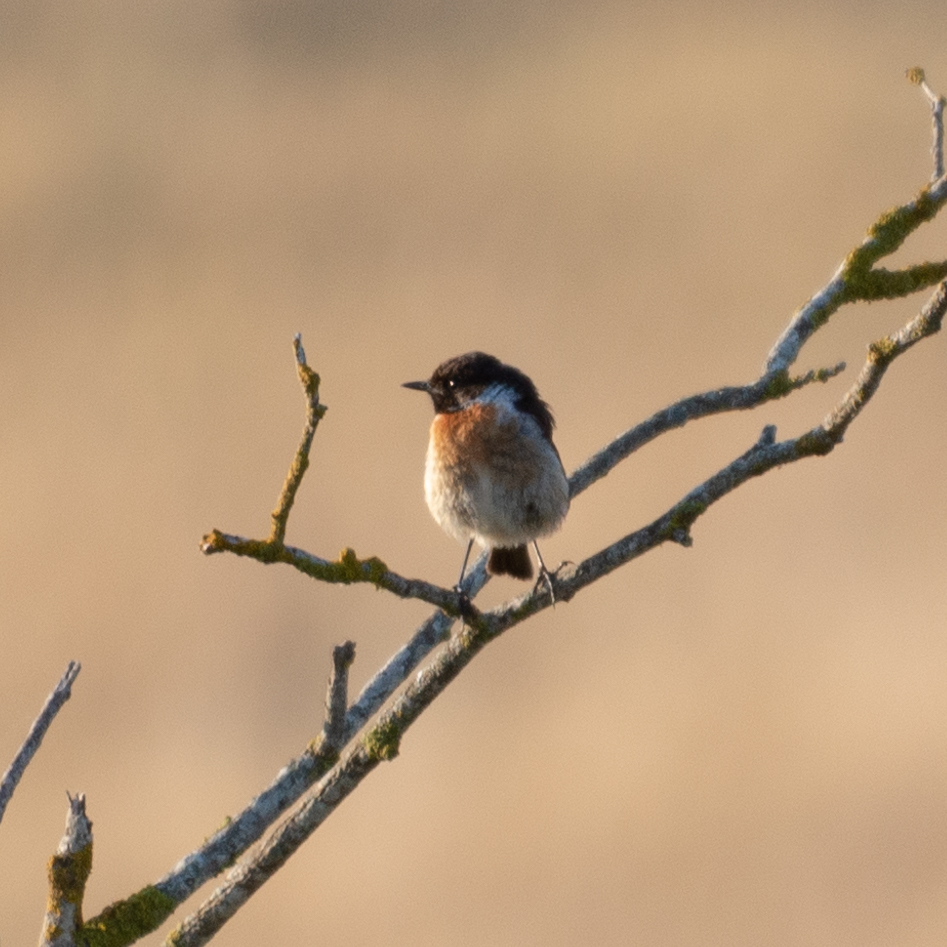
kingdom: Animalia
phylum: Chordata
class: Aves
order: Passeriformes
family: Muscicapidae
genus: Saxicola
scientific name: Saxicola rubicola
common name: European stonechat
